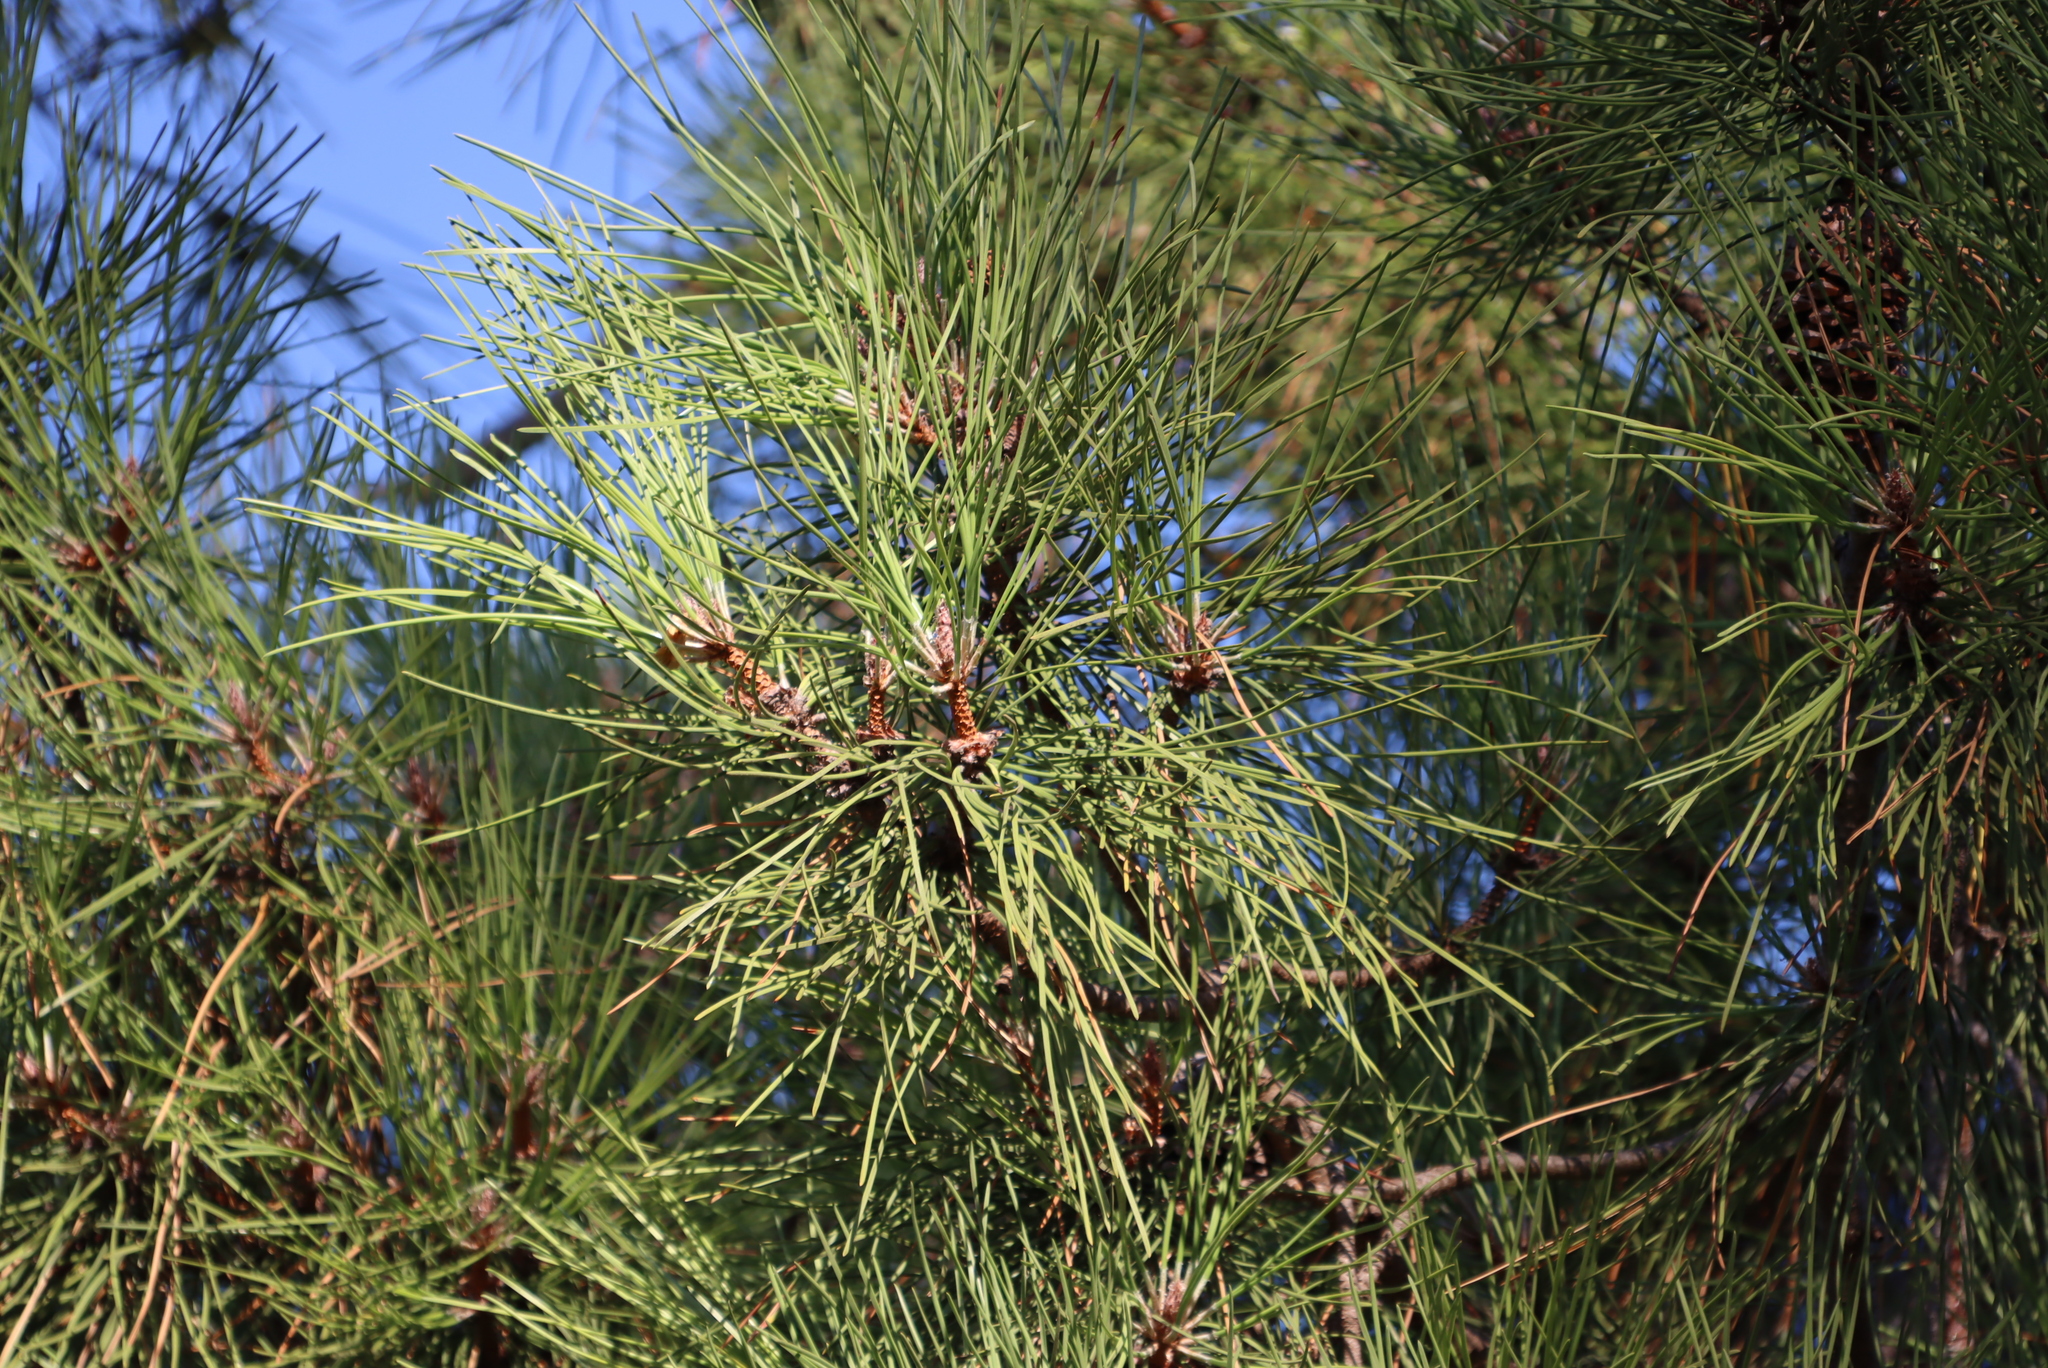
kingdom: Plantae
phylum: Tracheophyta
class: Pinopsida
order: Pinales
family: Pinaceae
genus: Pinus
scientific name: Pinus pinea
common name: Italian stone pine
